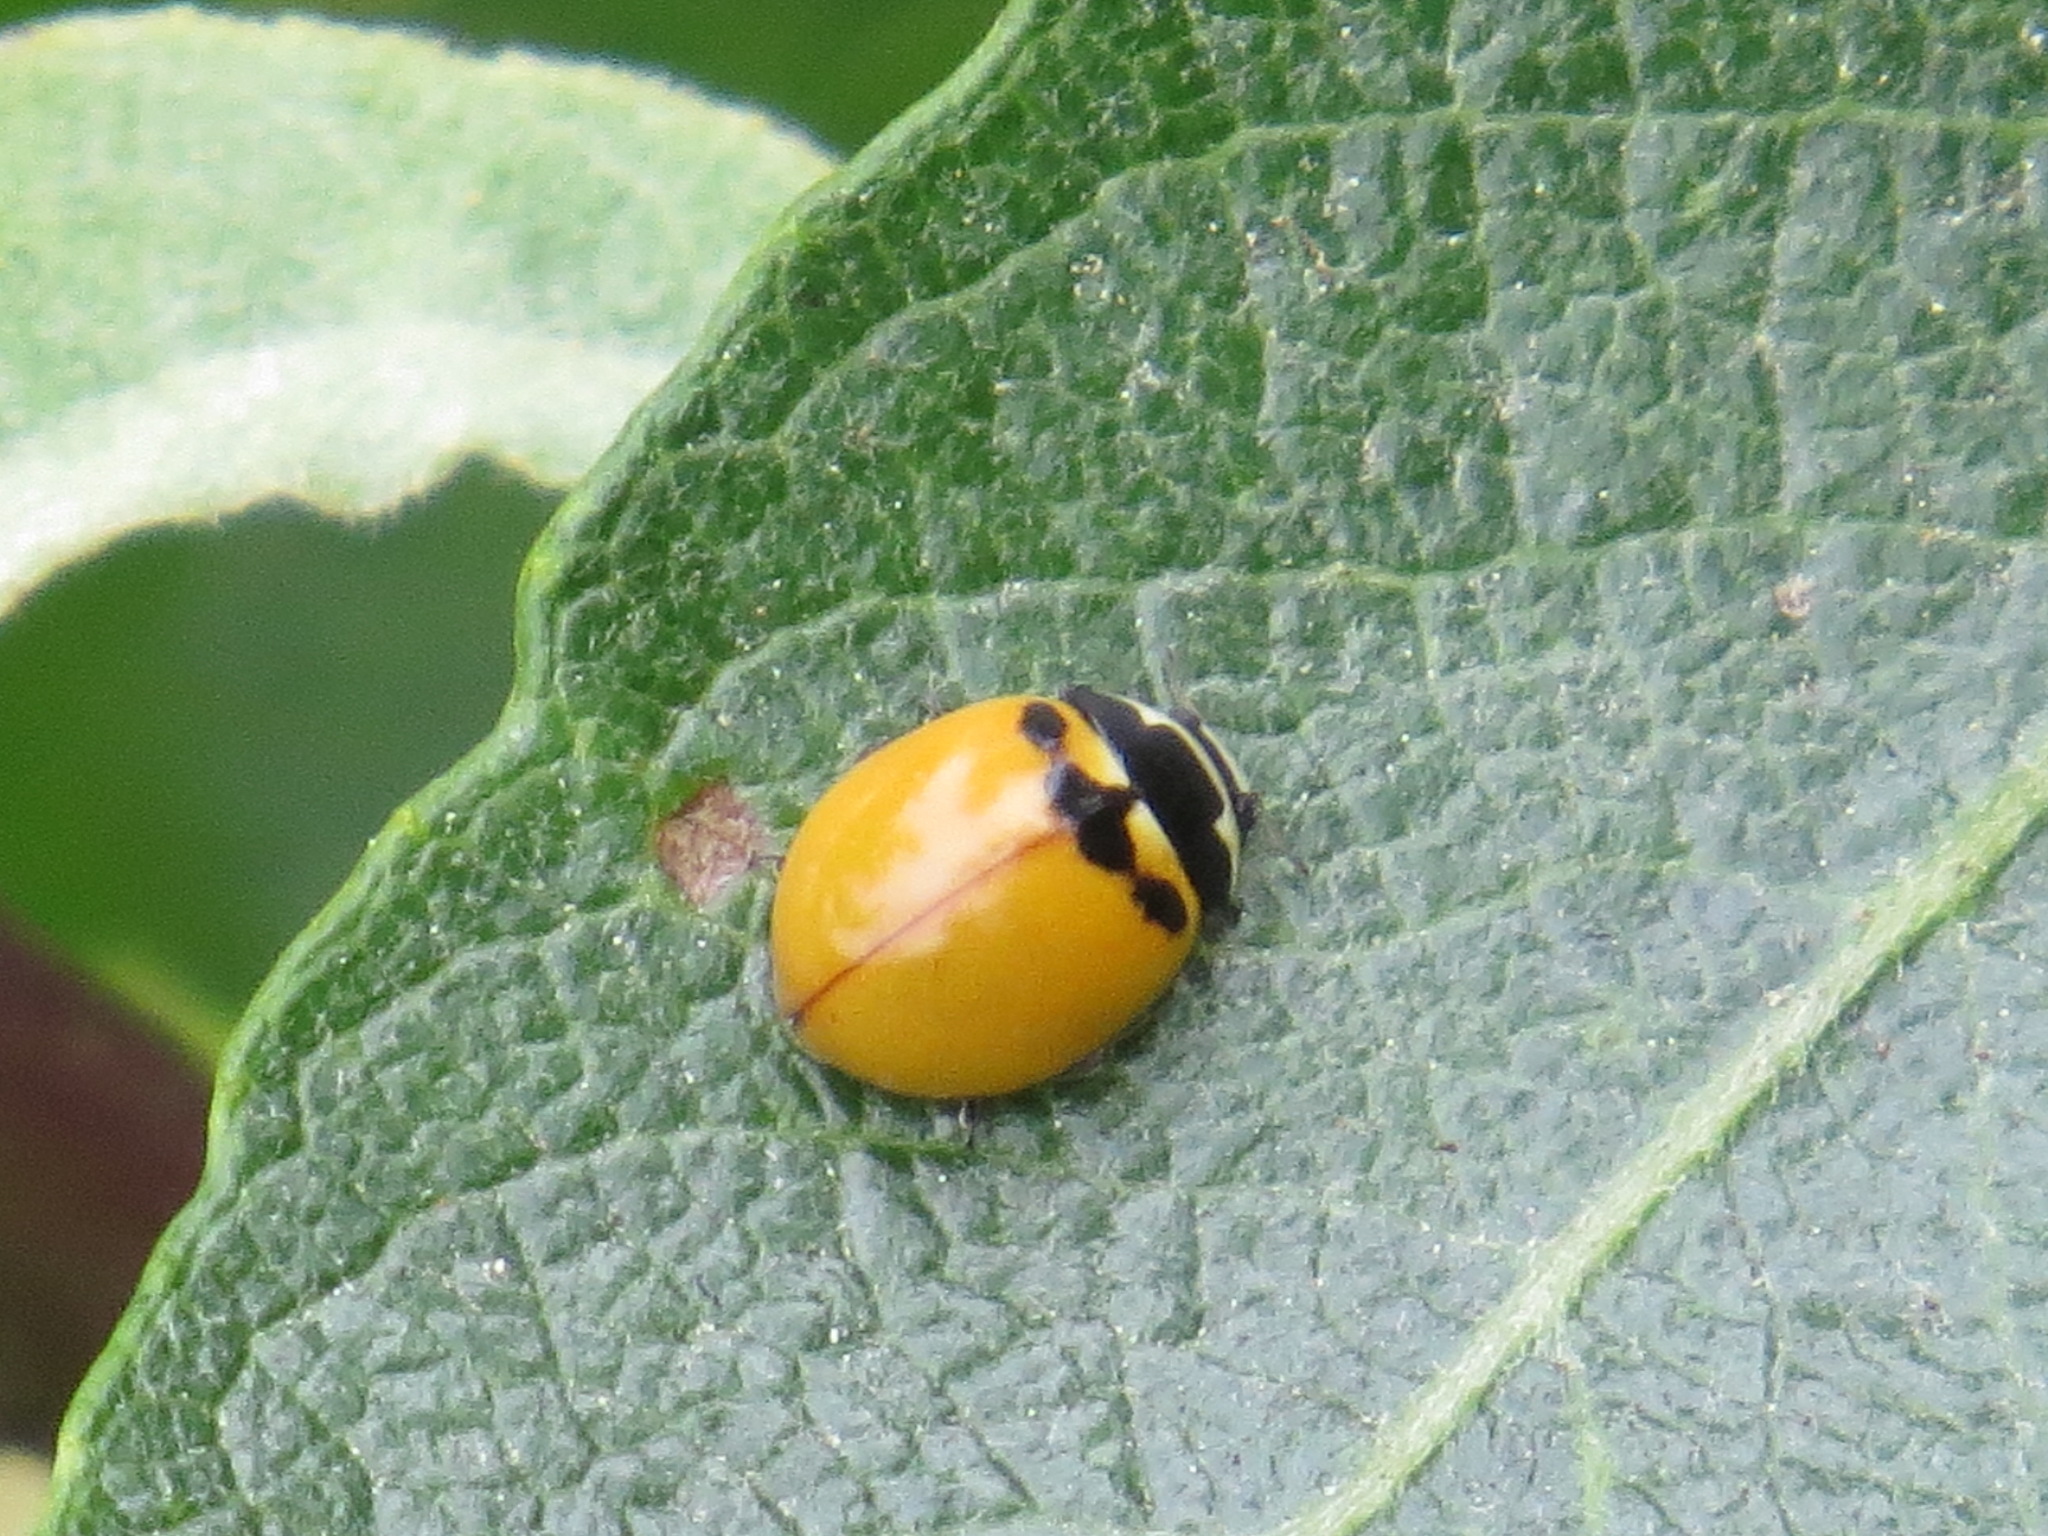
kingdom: Animalia
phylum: Arthropoda
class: Insecta
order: Coleoptera
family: Coccinellidae
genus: Coccinella
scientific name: Coccinella trifasciata
